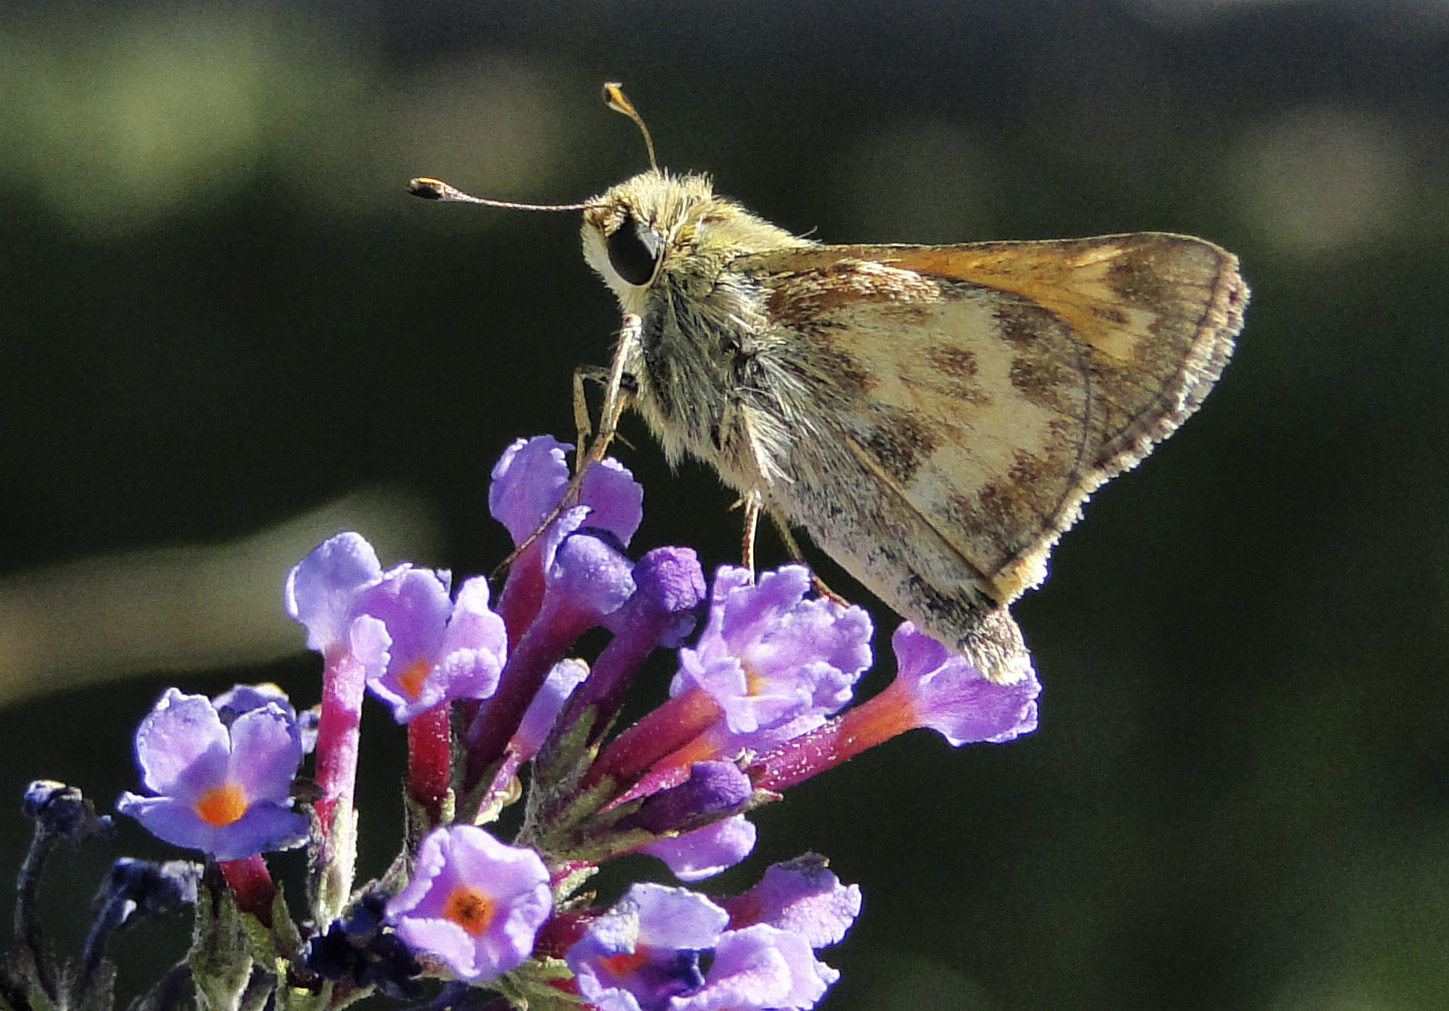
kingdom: Animalia
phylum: Arthropoda
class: Insecta
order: Lepidoptera
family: Hesperiidae
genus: Atalopedes
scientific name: Atalopedes campestris
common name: Sachem
